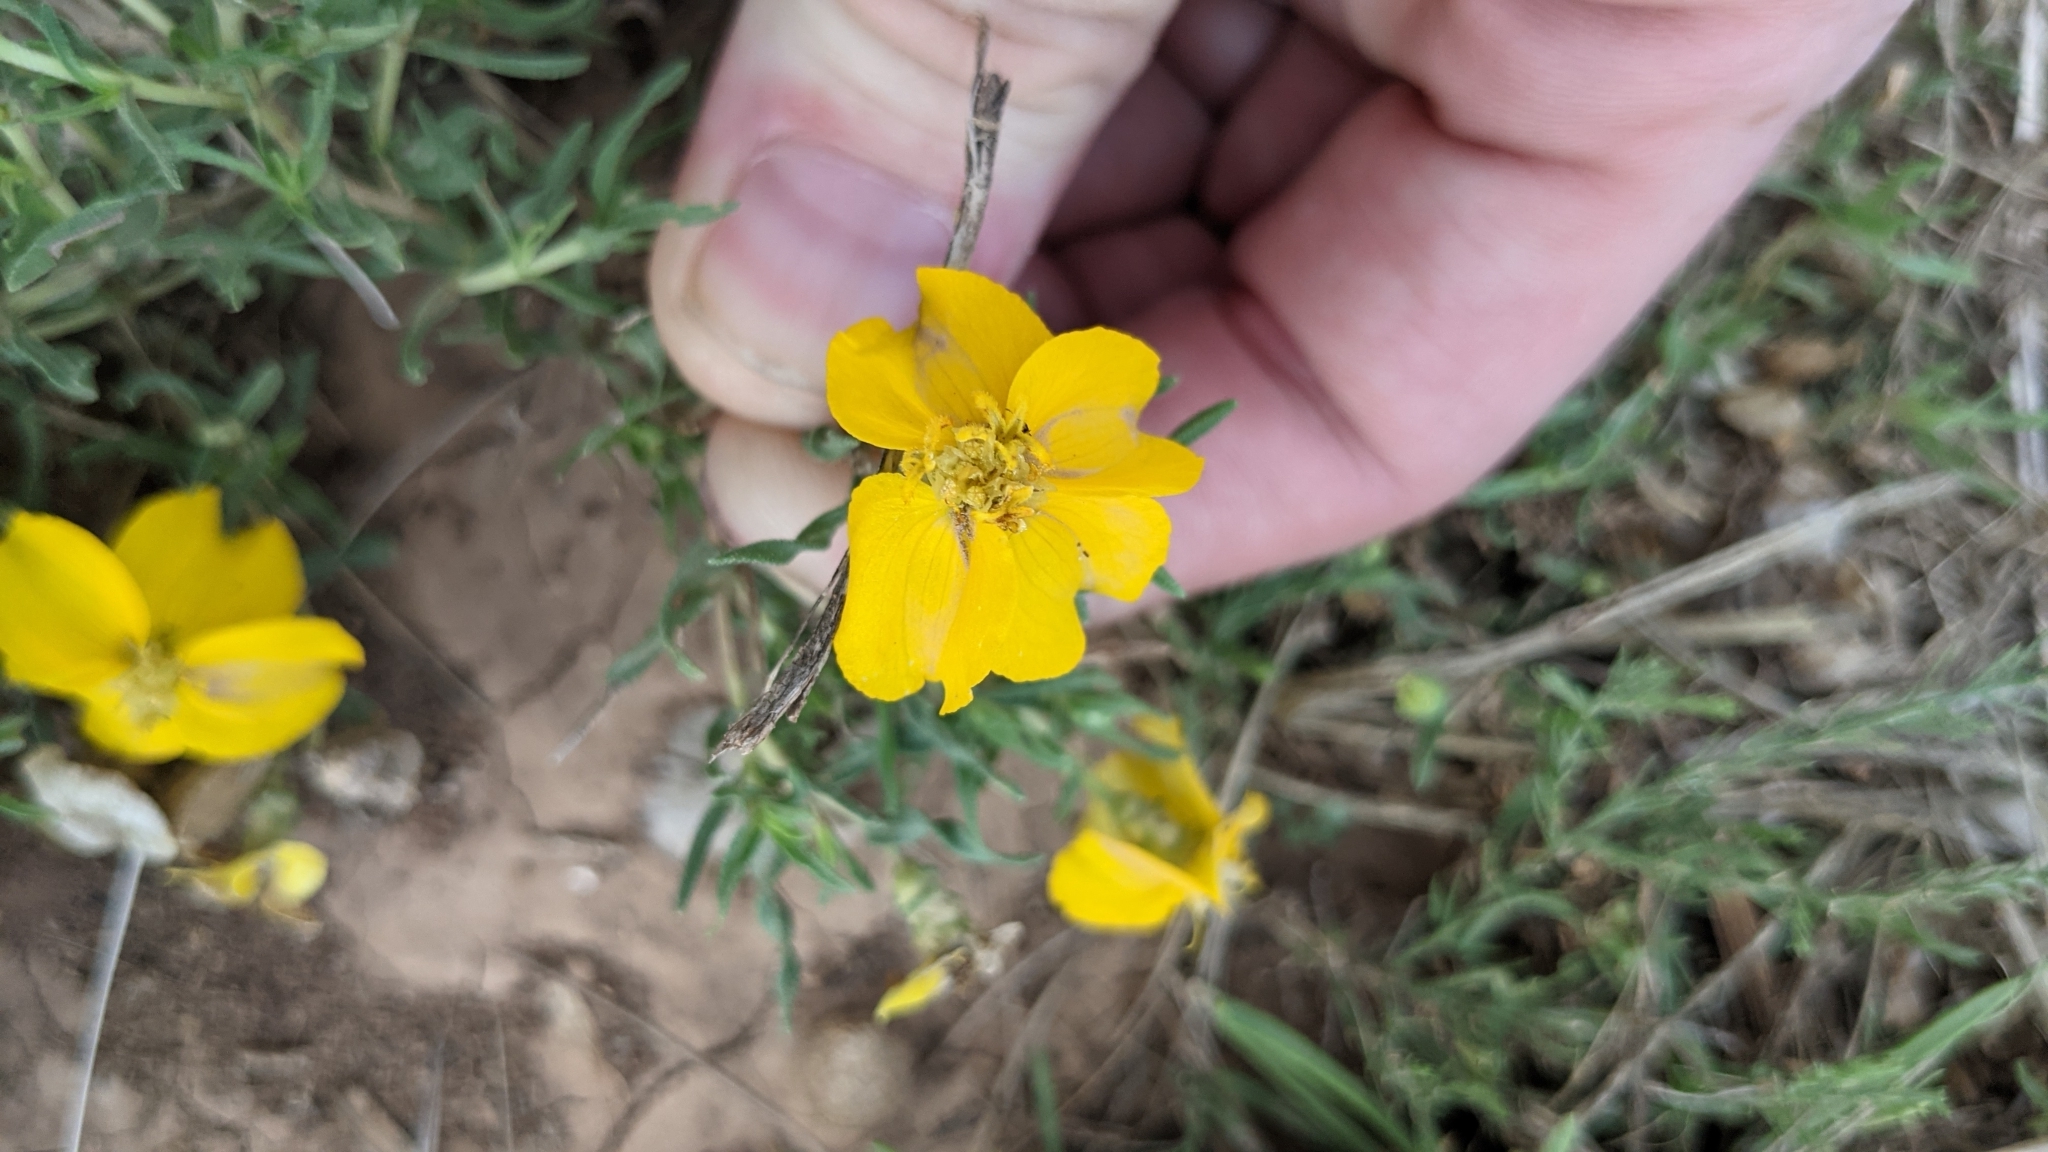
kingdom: Plantae
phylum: Tracheophyta
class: Magnoliopsida
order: Asterales
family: Asteraceae
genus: Zinnia
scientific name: Zinnia grandiflora
